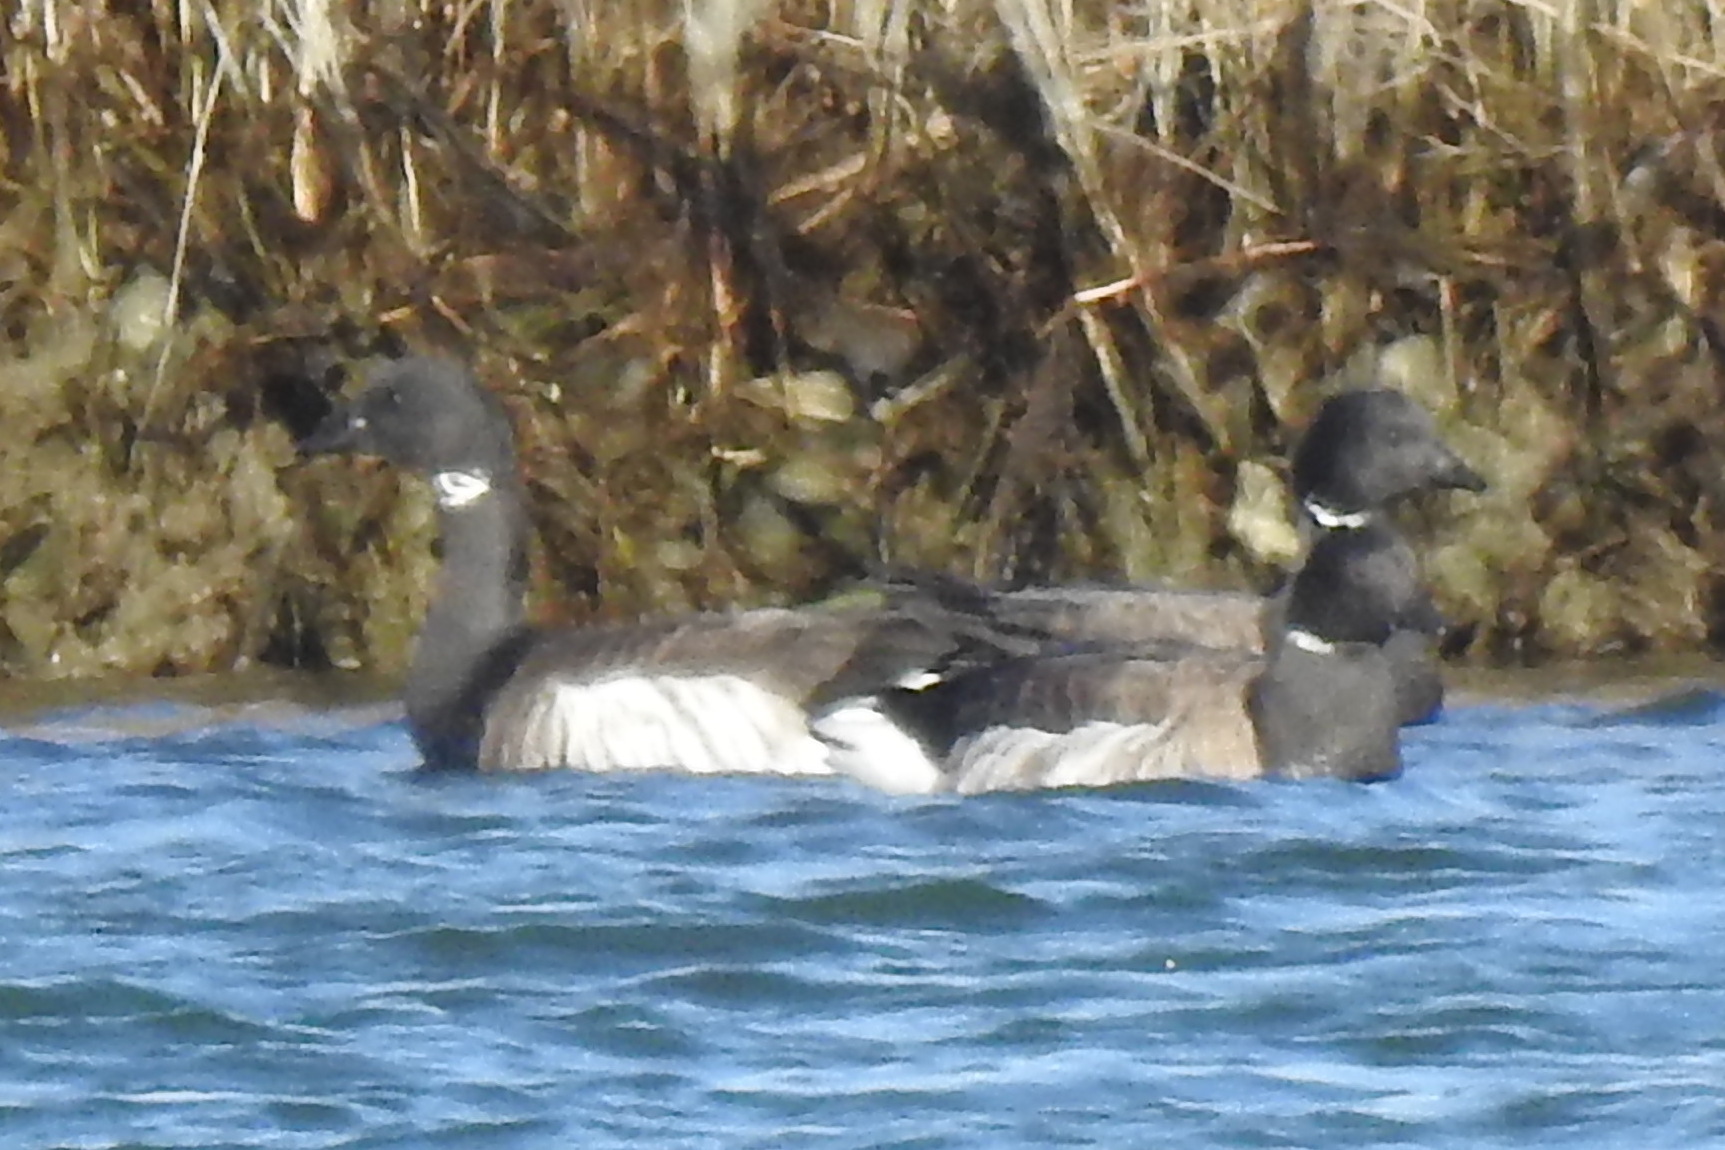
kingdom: Animalia
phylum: Chordata
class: Aves
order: Anseriformes
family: Anatidae
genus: Branta
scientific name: Branta bernicla
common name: Brant goose
